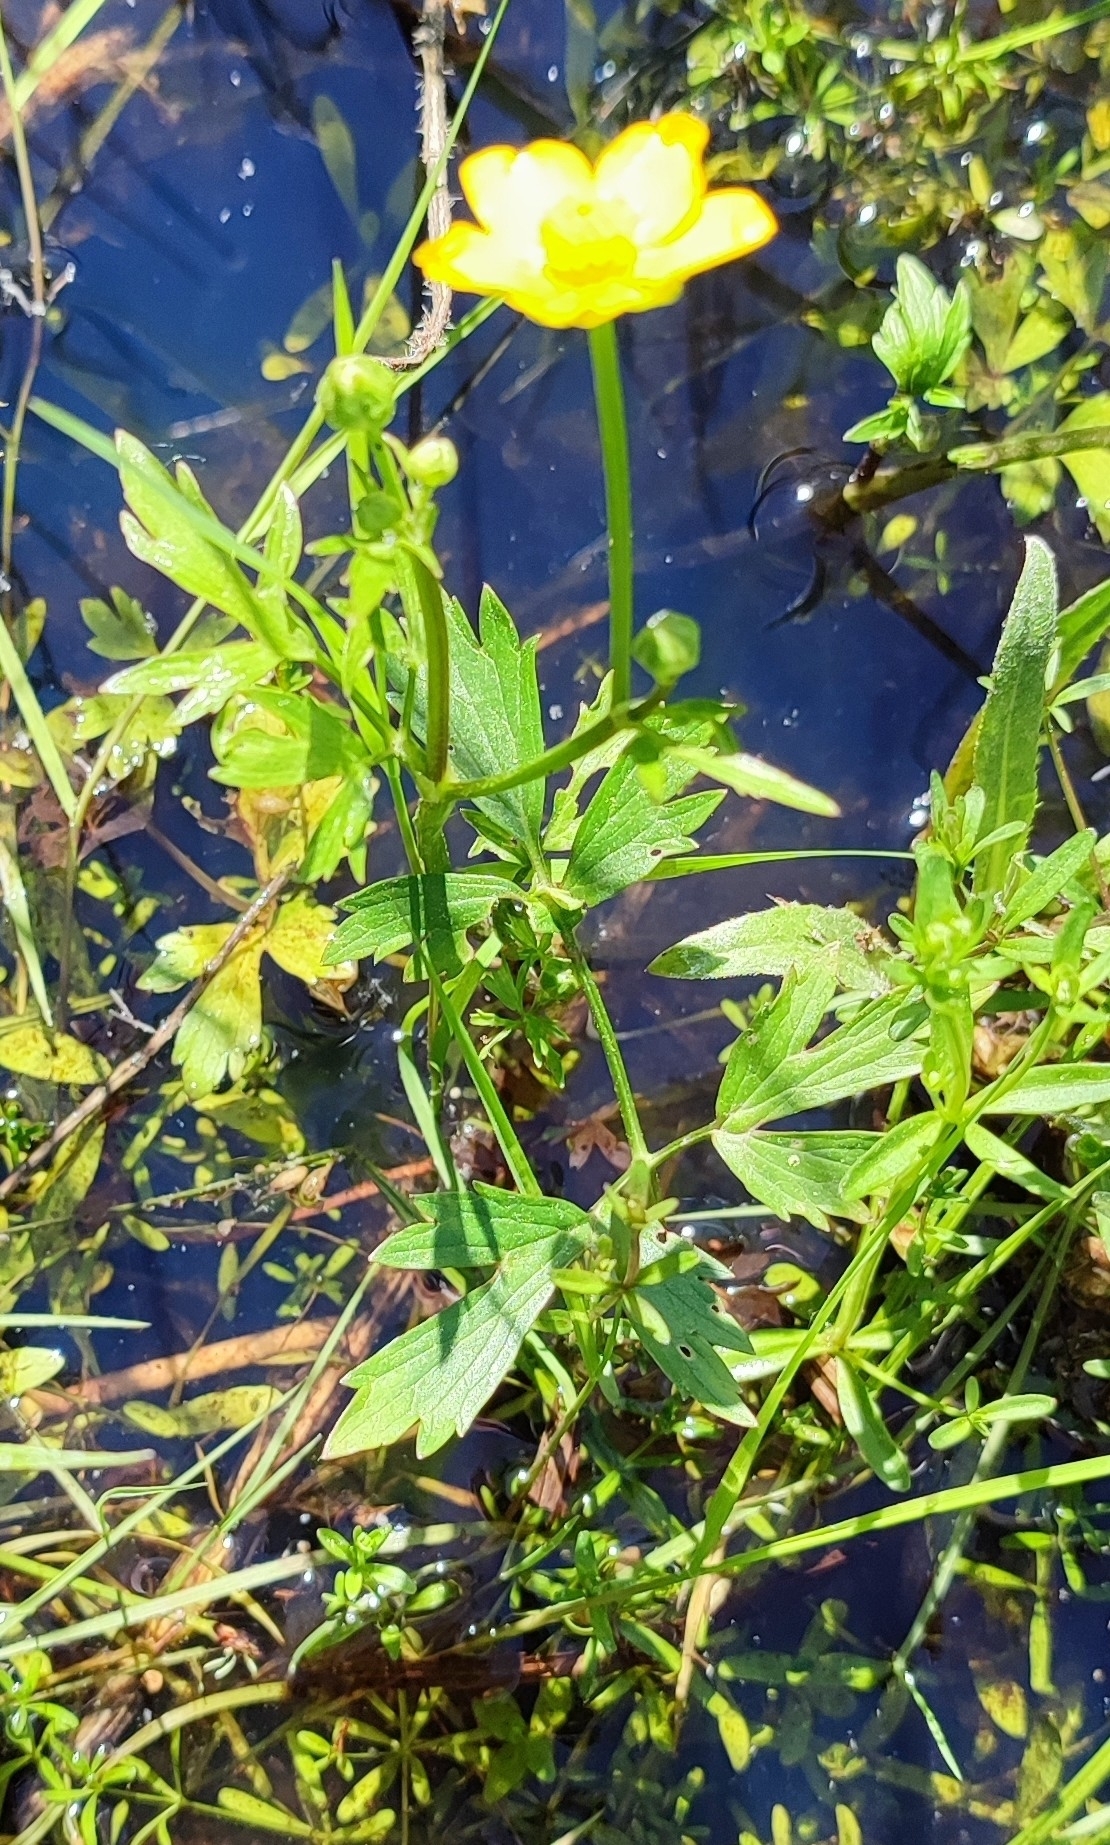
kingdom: Plantae
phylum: Tracheophyta
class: Magnoliopsida
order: Ranunculales
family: Ranunculaceae
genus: Ranunculus
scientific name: Ranunculus repens
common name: Creeping buttercup
